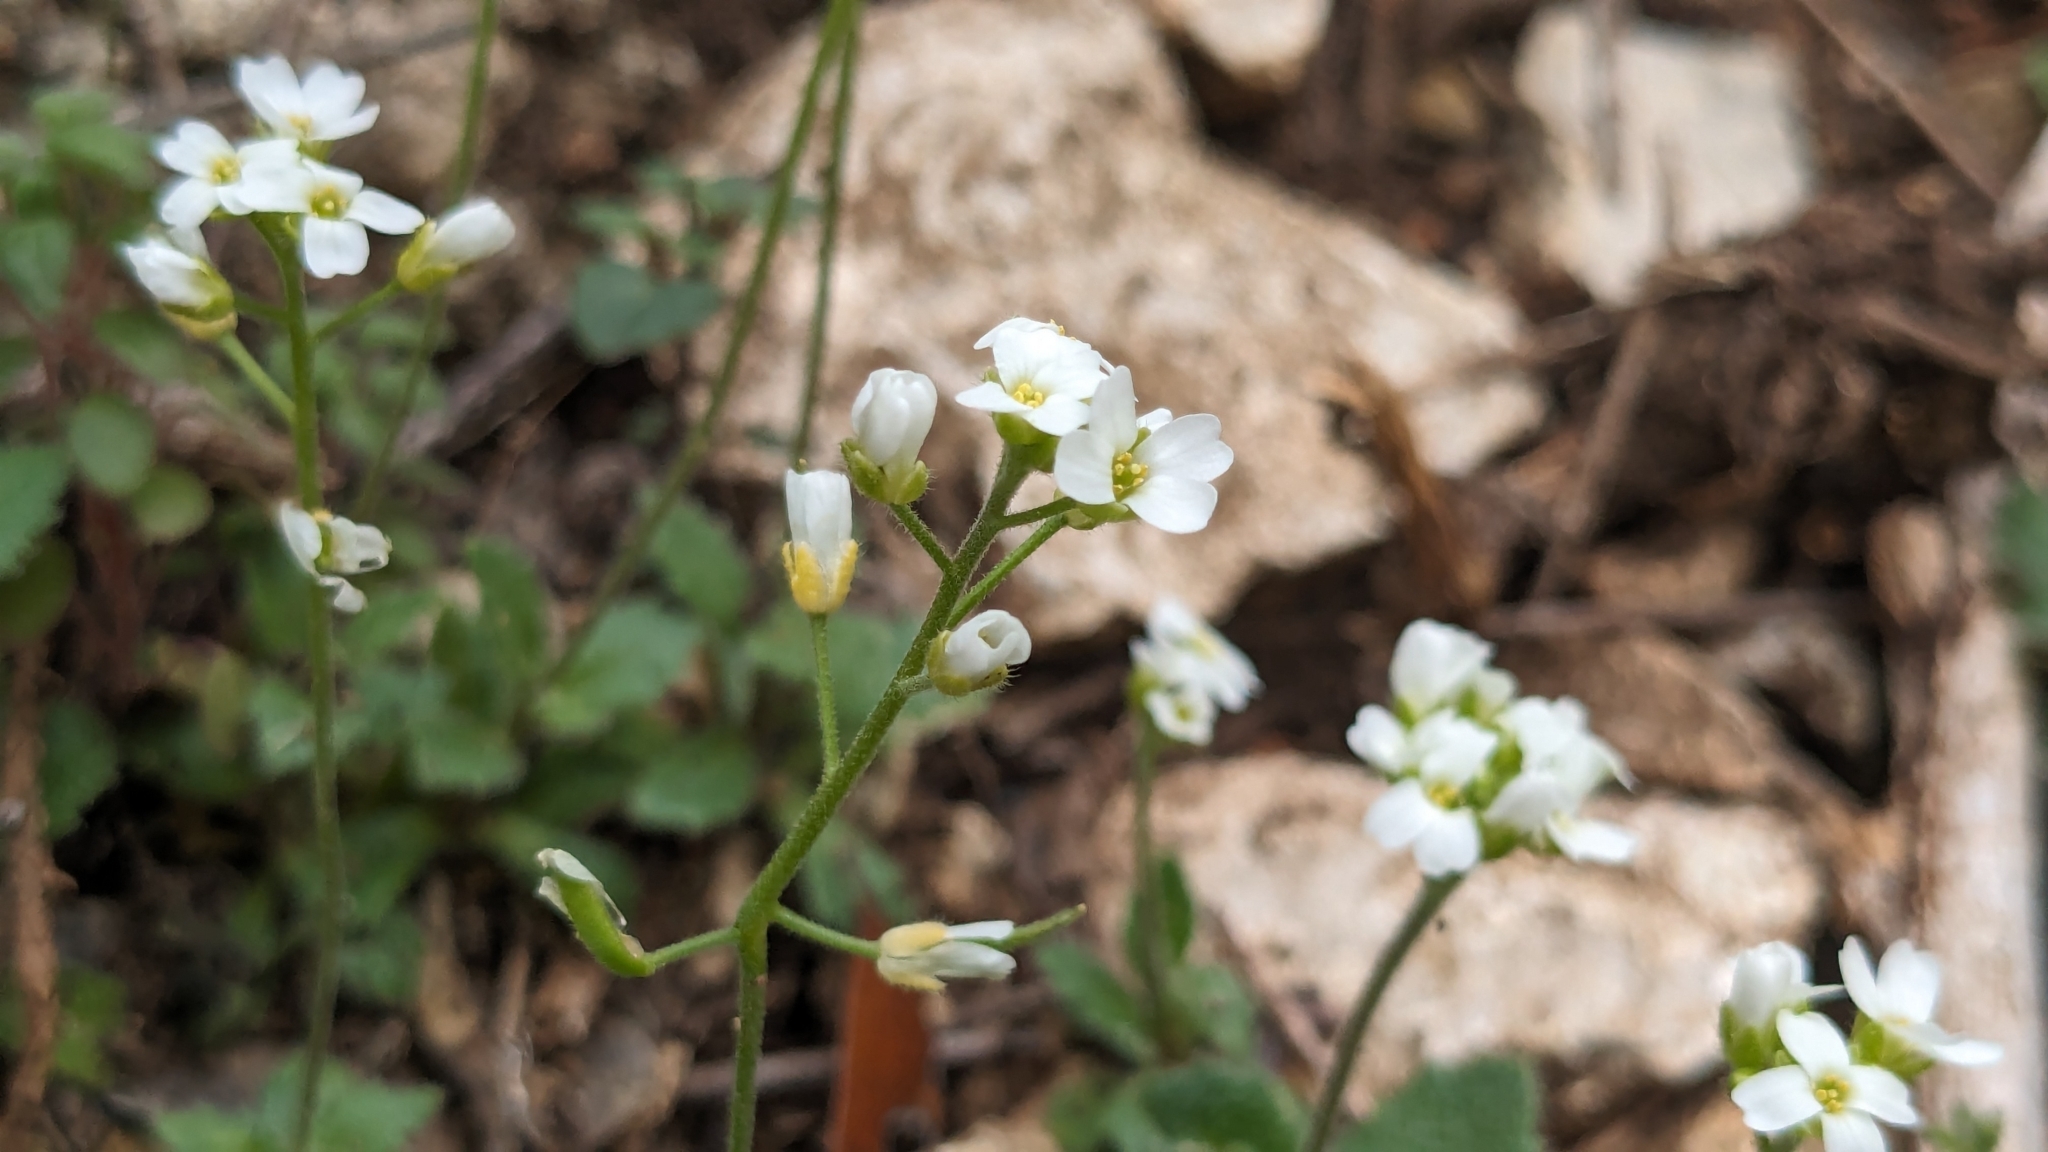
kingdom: Plantae
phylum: Tracheophyta
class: Magnoliopsida
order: Brassicales
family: Brassicaceae
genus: Tomostima
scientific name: Tomostima cuneifolia
